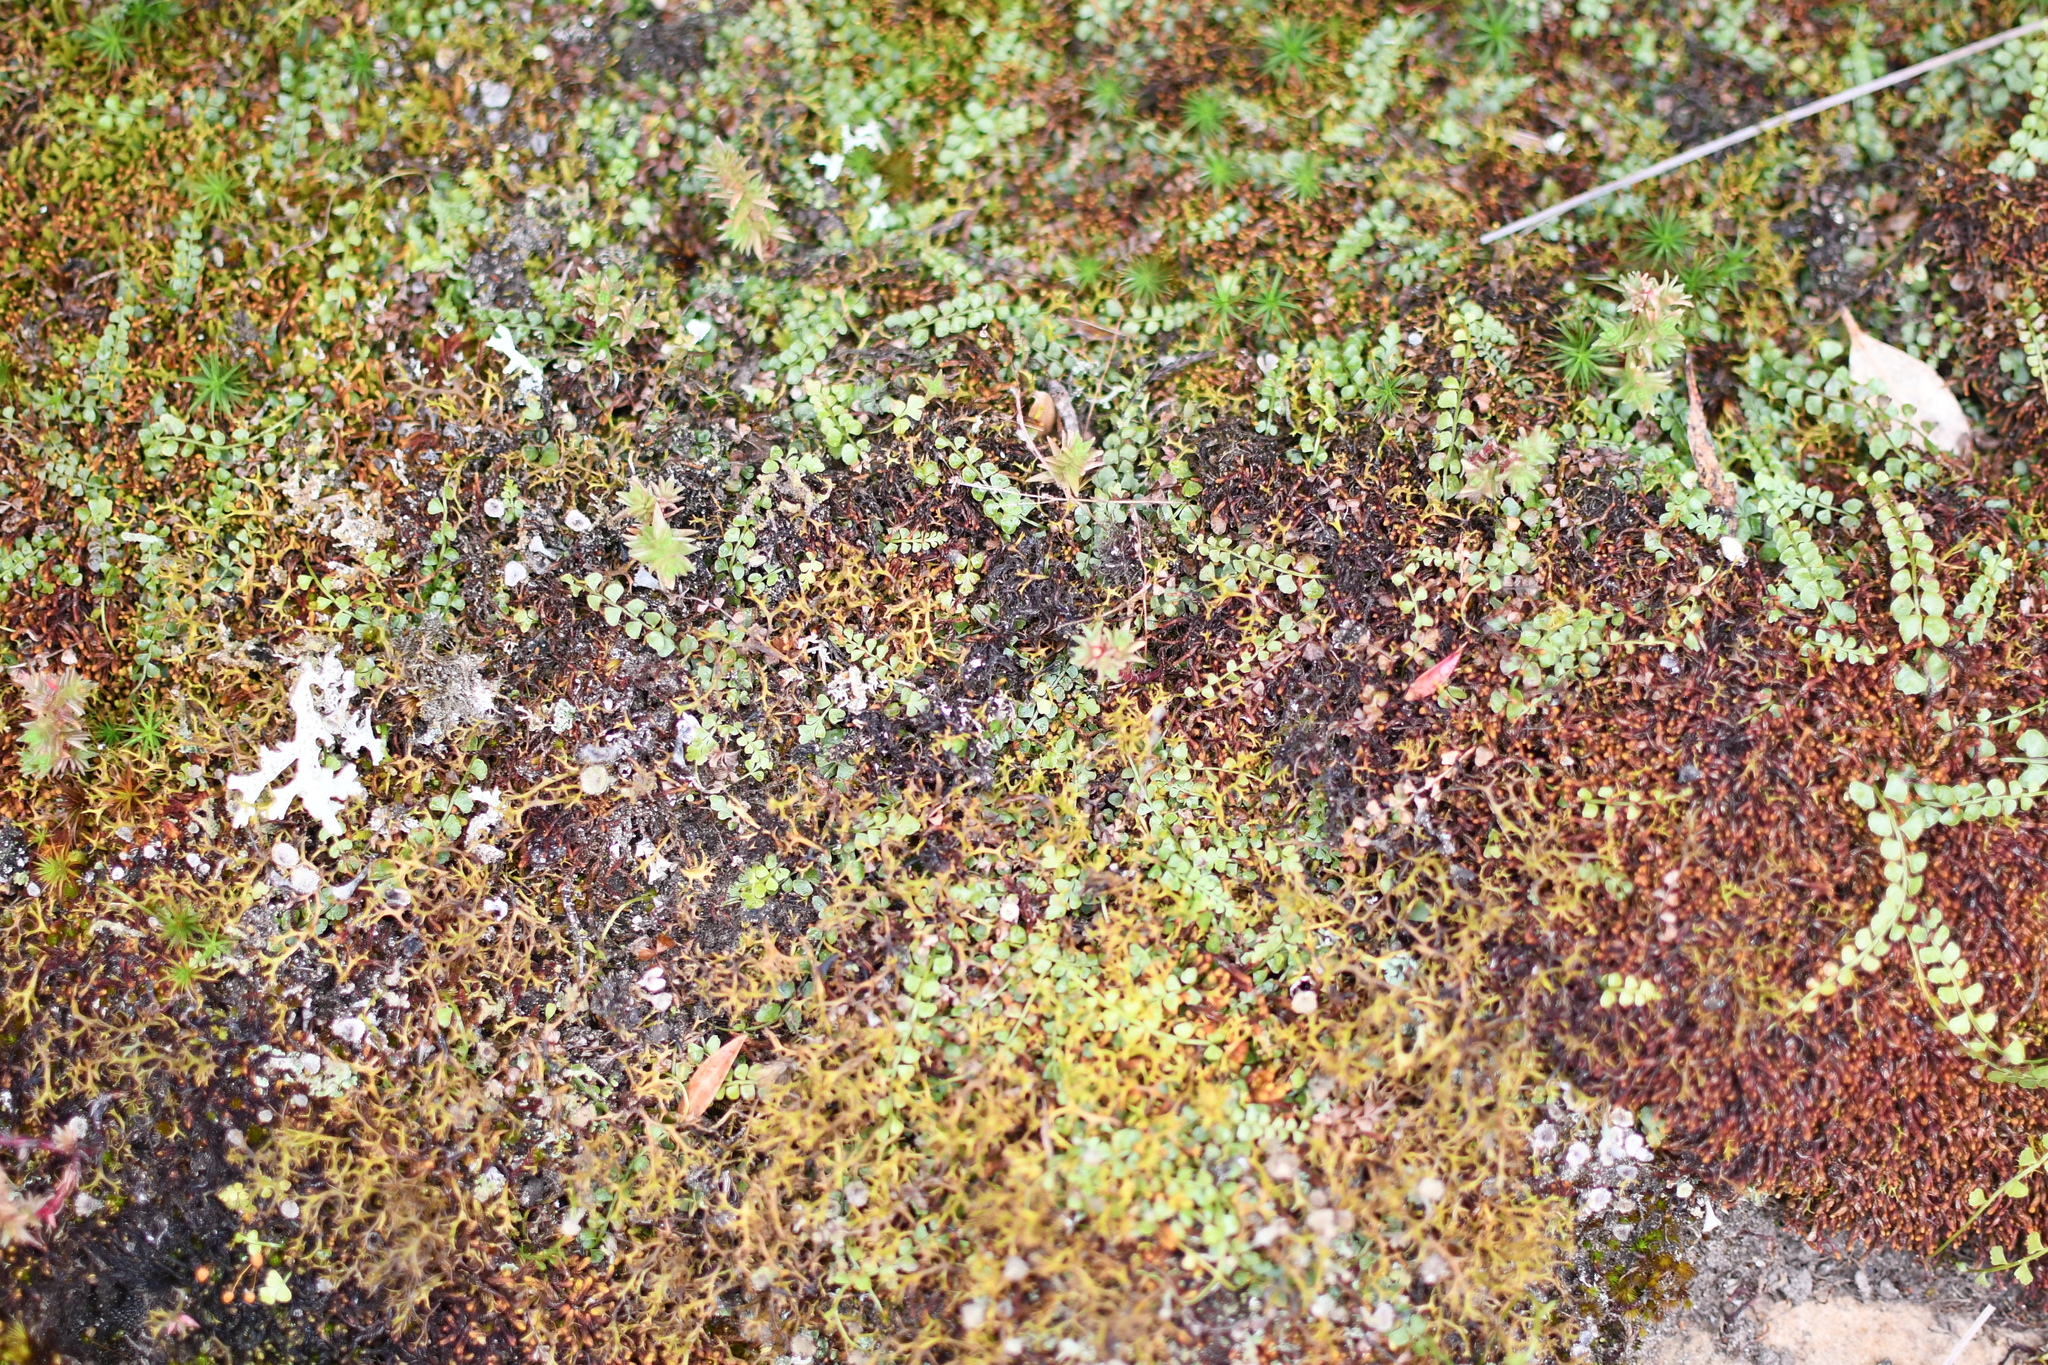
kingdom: Plantae
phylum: Tracheophyta
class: Polypodiopsida
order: Polypodiales
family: Aspleniaceae
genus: Asplenium
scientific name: Asplenium flabellifolium
